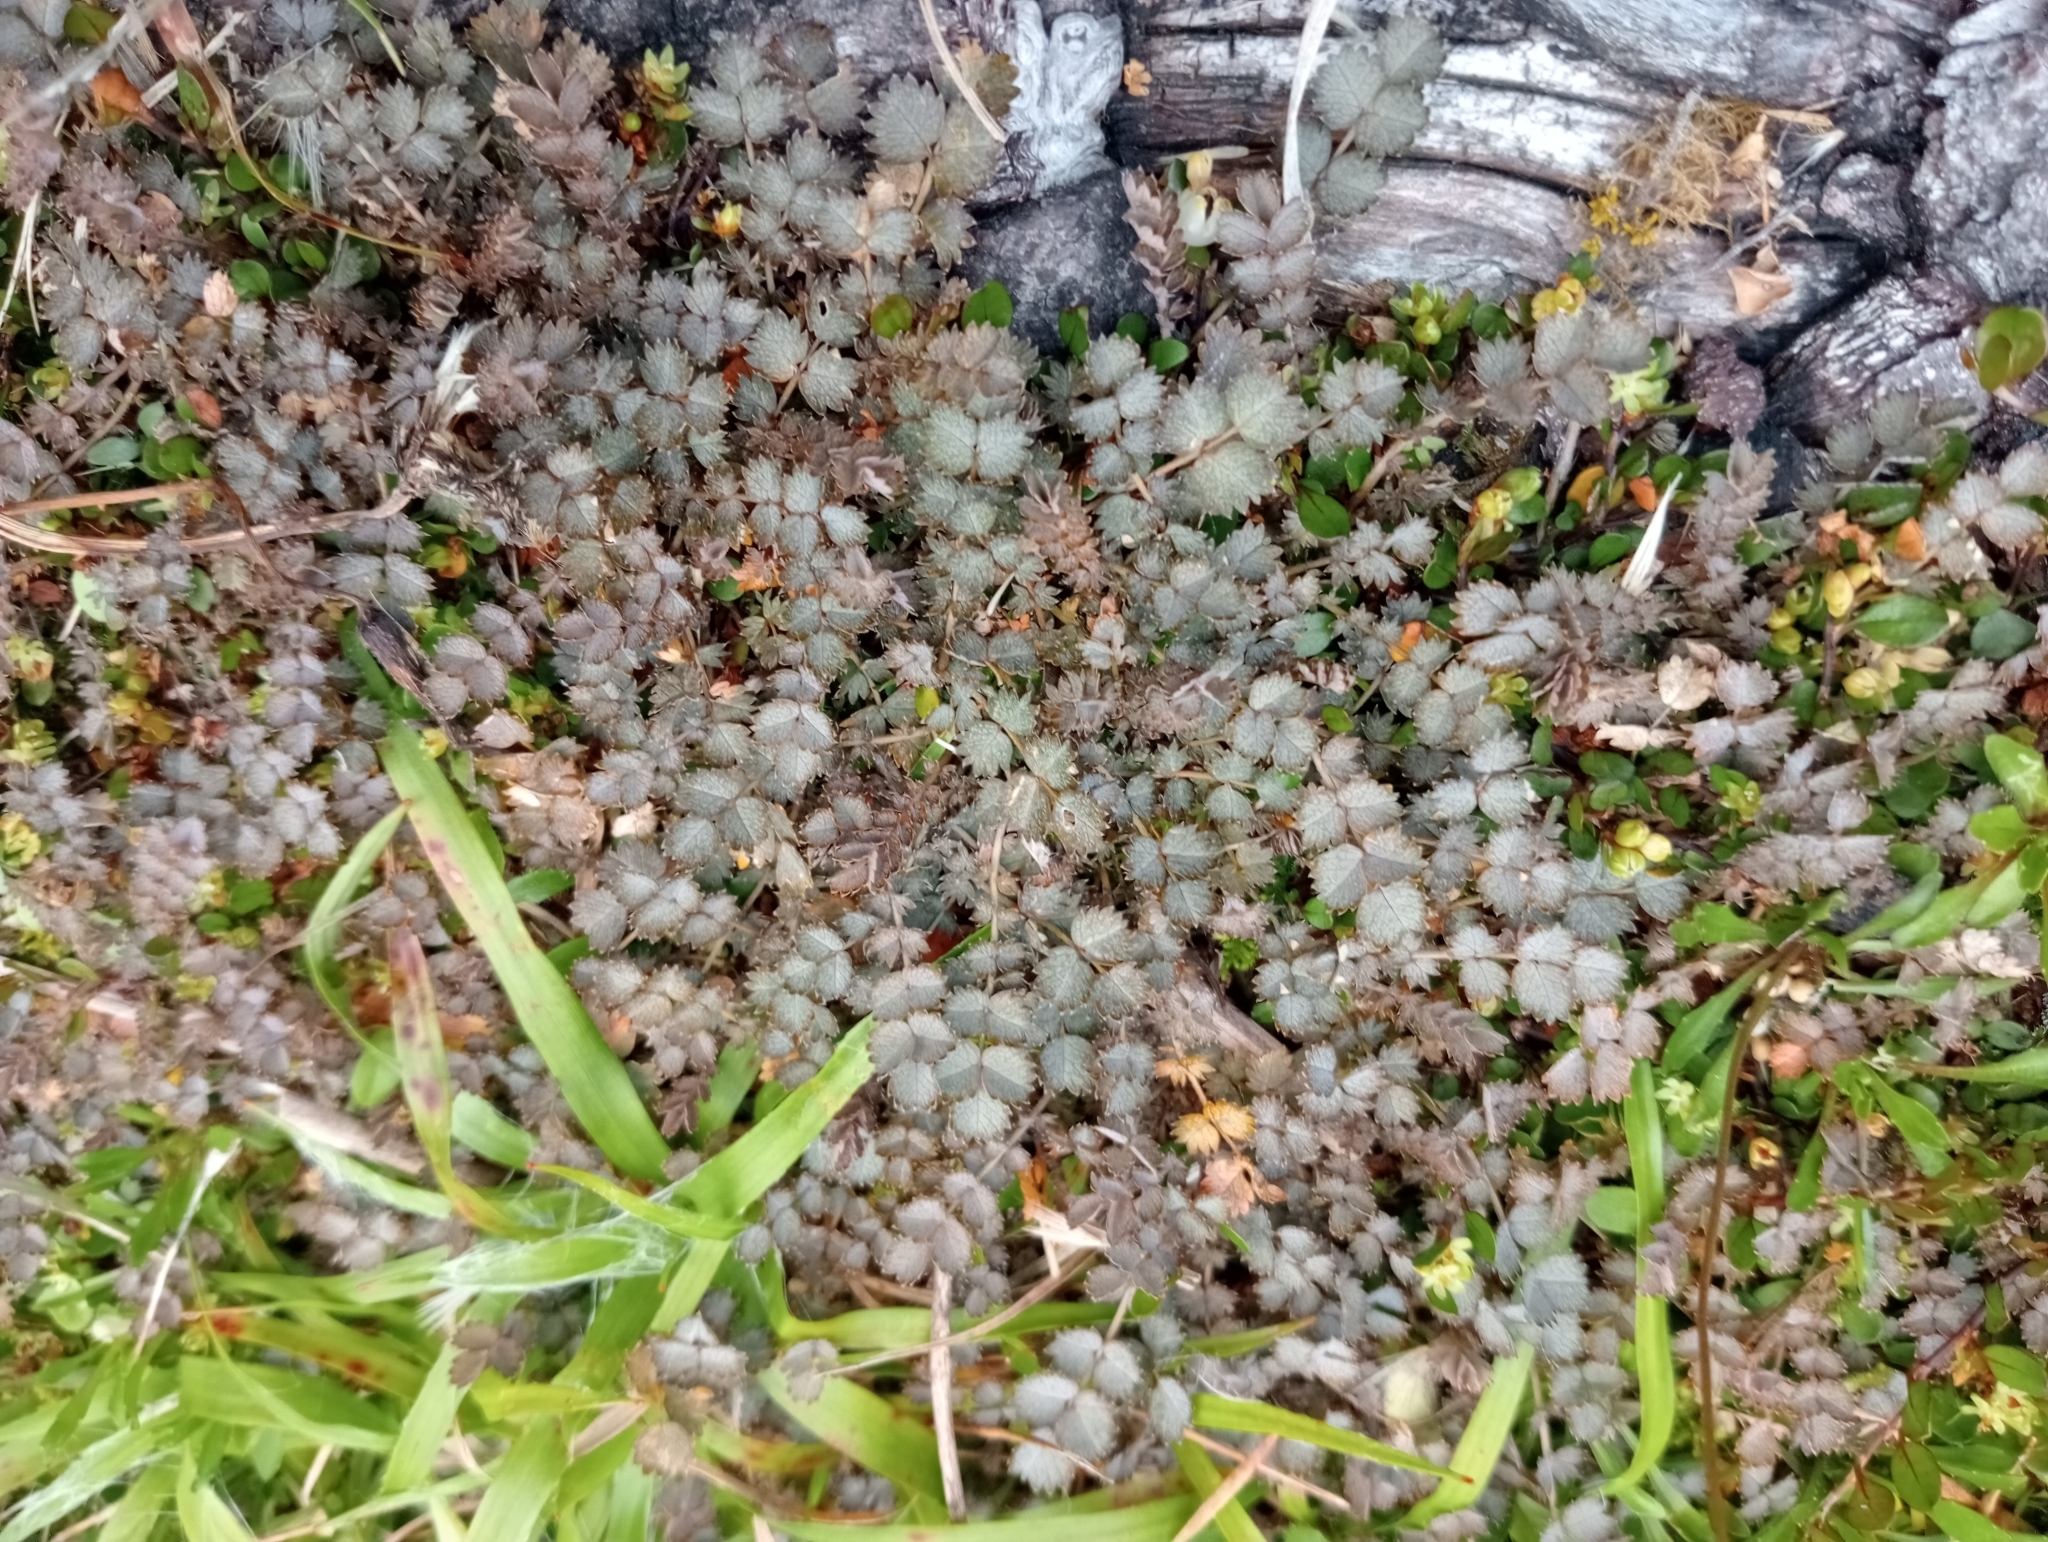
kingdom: Plantae
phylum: Tracheophyta
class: Magnoliopsida
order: Rosales
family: Rosaceae
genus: Acaena
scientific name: Acaena inermis
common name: Spineless acaena
